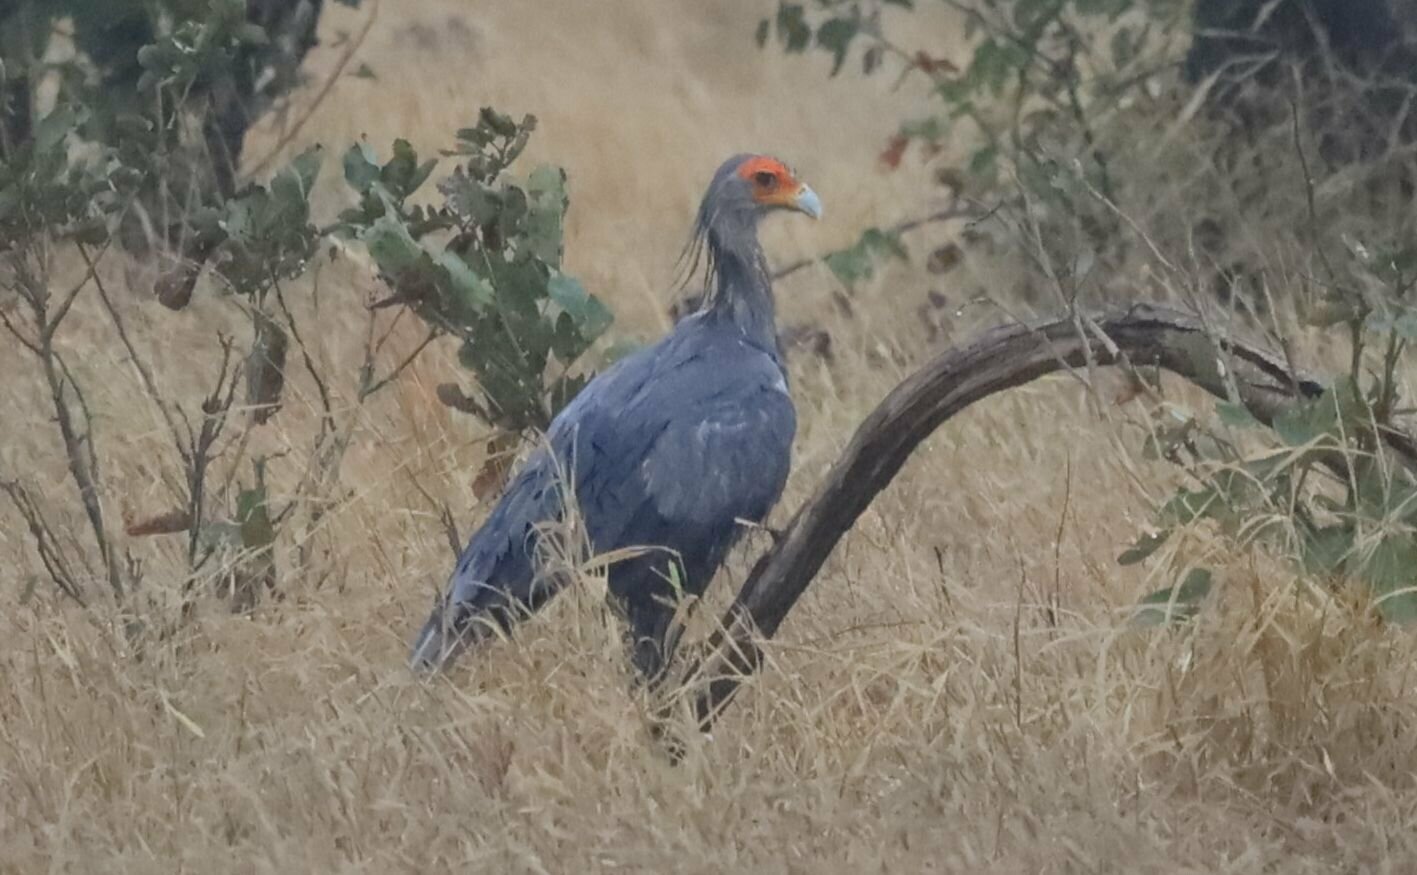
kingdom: Animalia
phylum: Chordata
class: Aves
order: Accipitriformes
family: Sagittariidae
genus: Sagittarius
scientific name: Sagittarius serpentarius
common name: Secretarybird
